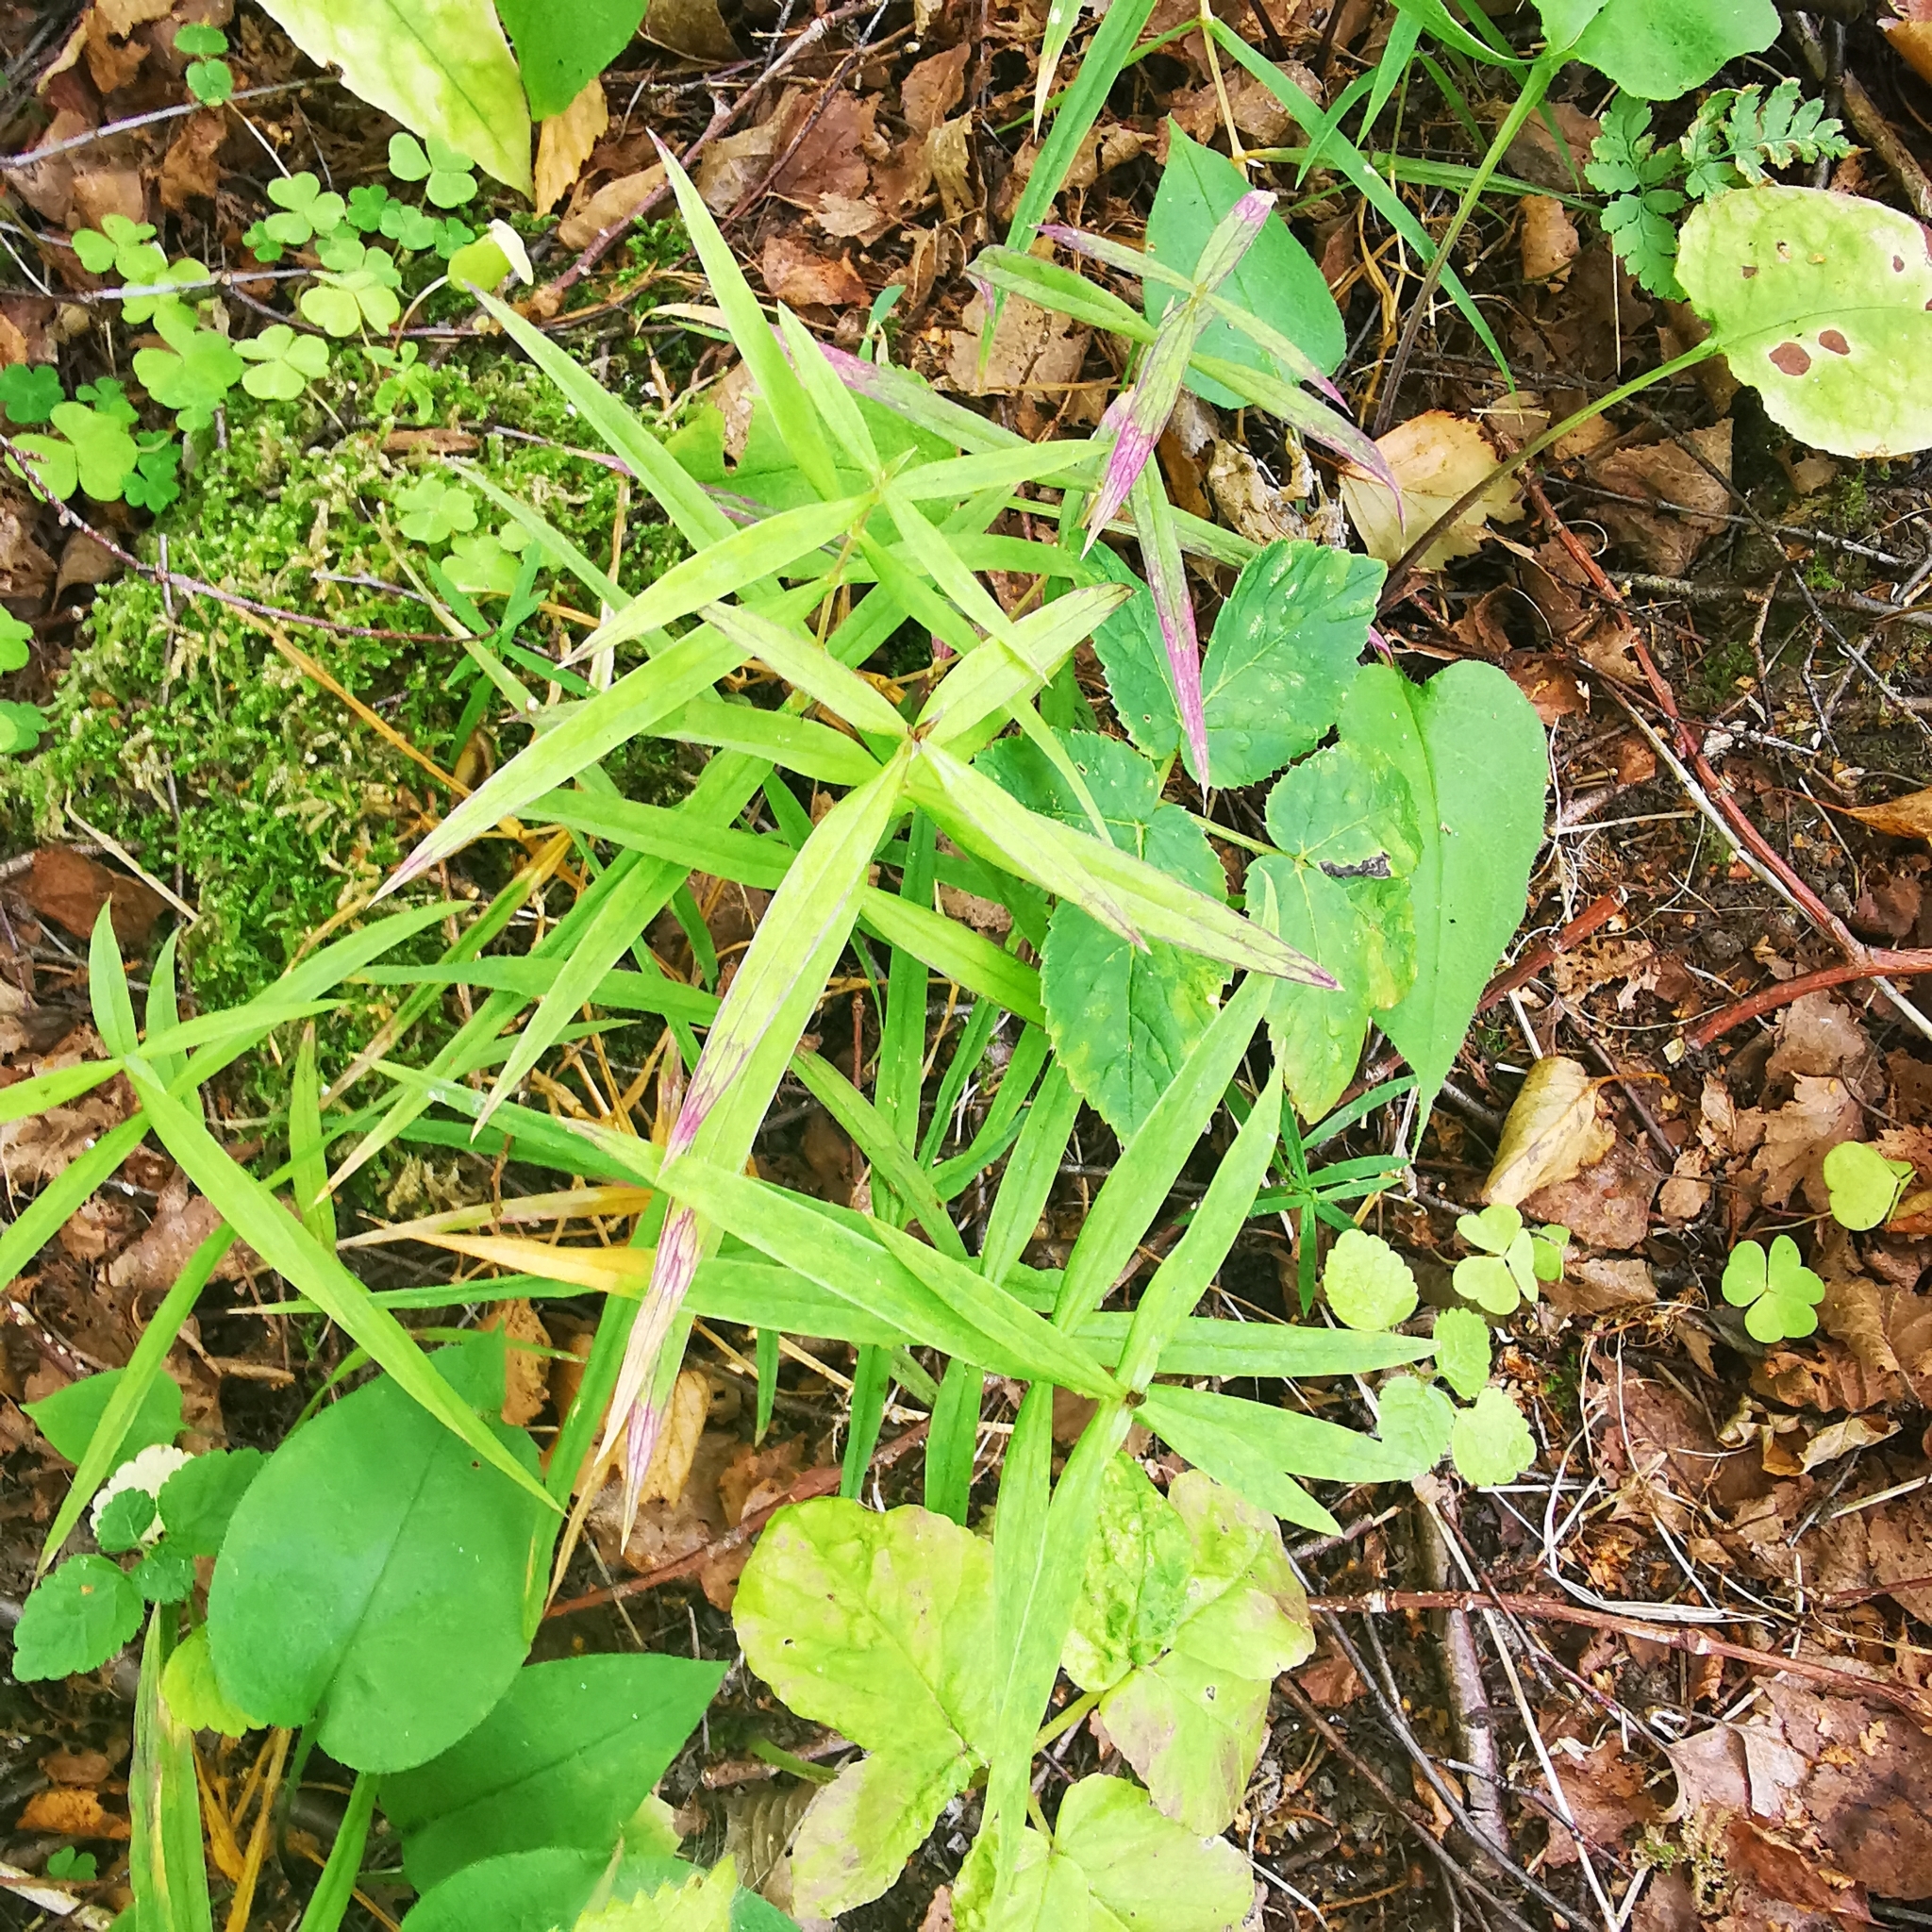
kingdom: Plantae
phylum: Tracheophyta
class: Magnoliopsida
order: Caryophyllales
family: Caryophyllaceae
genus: Rabelera
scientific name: Rabelera holostea
